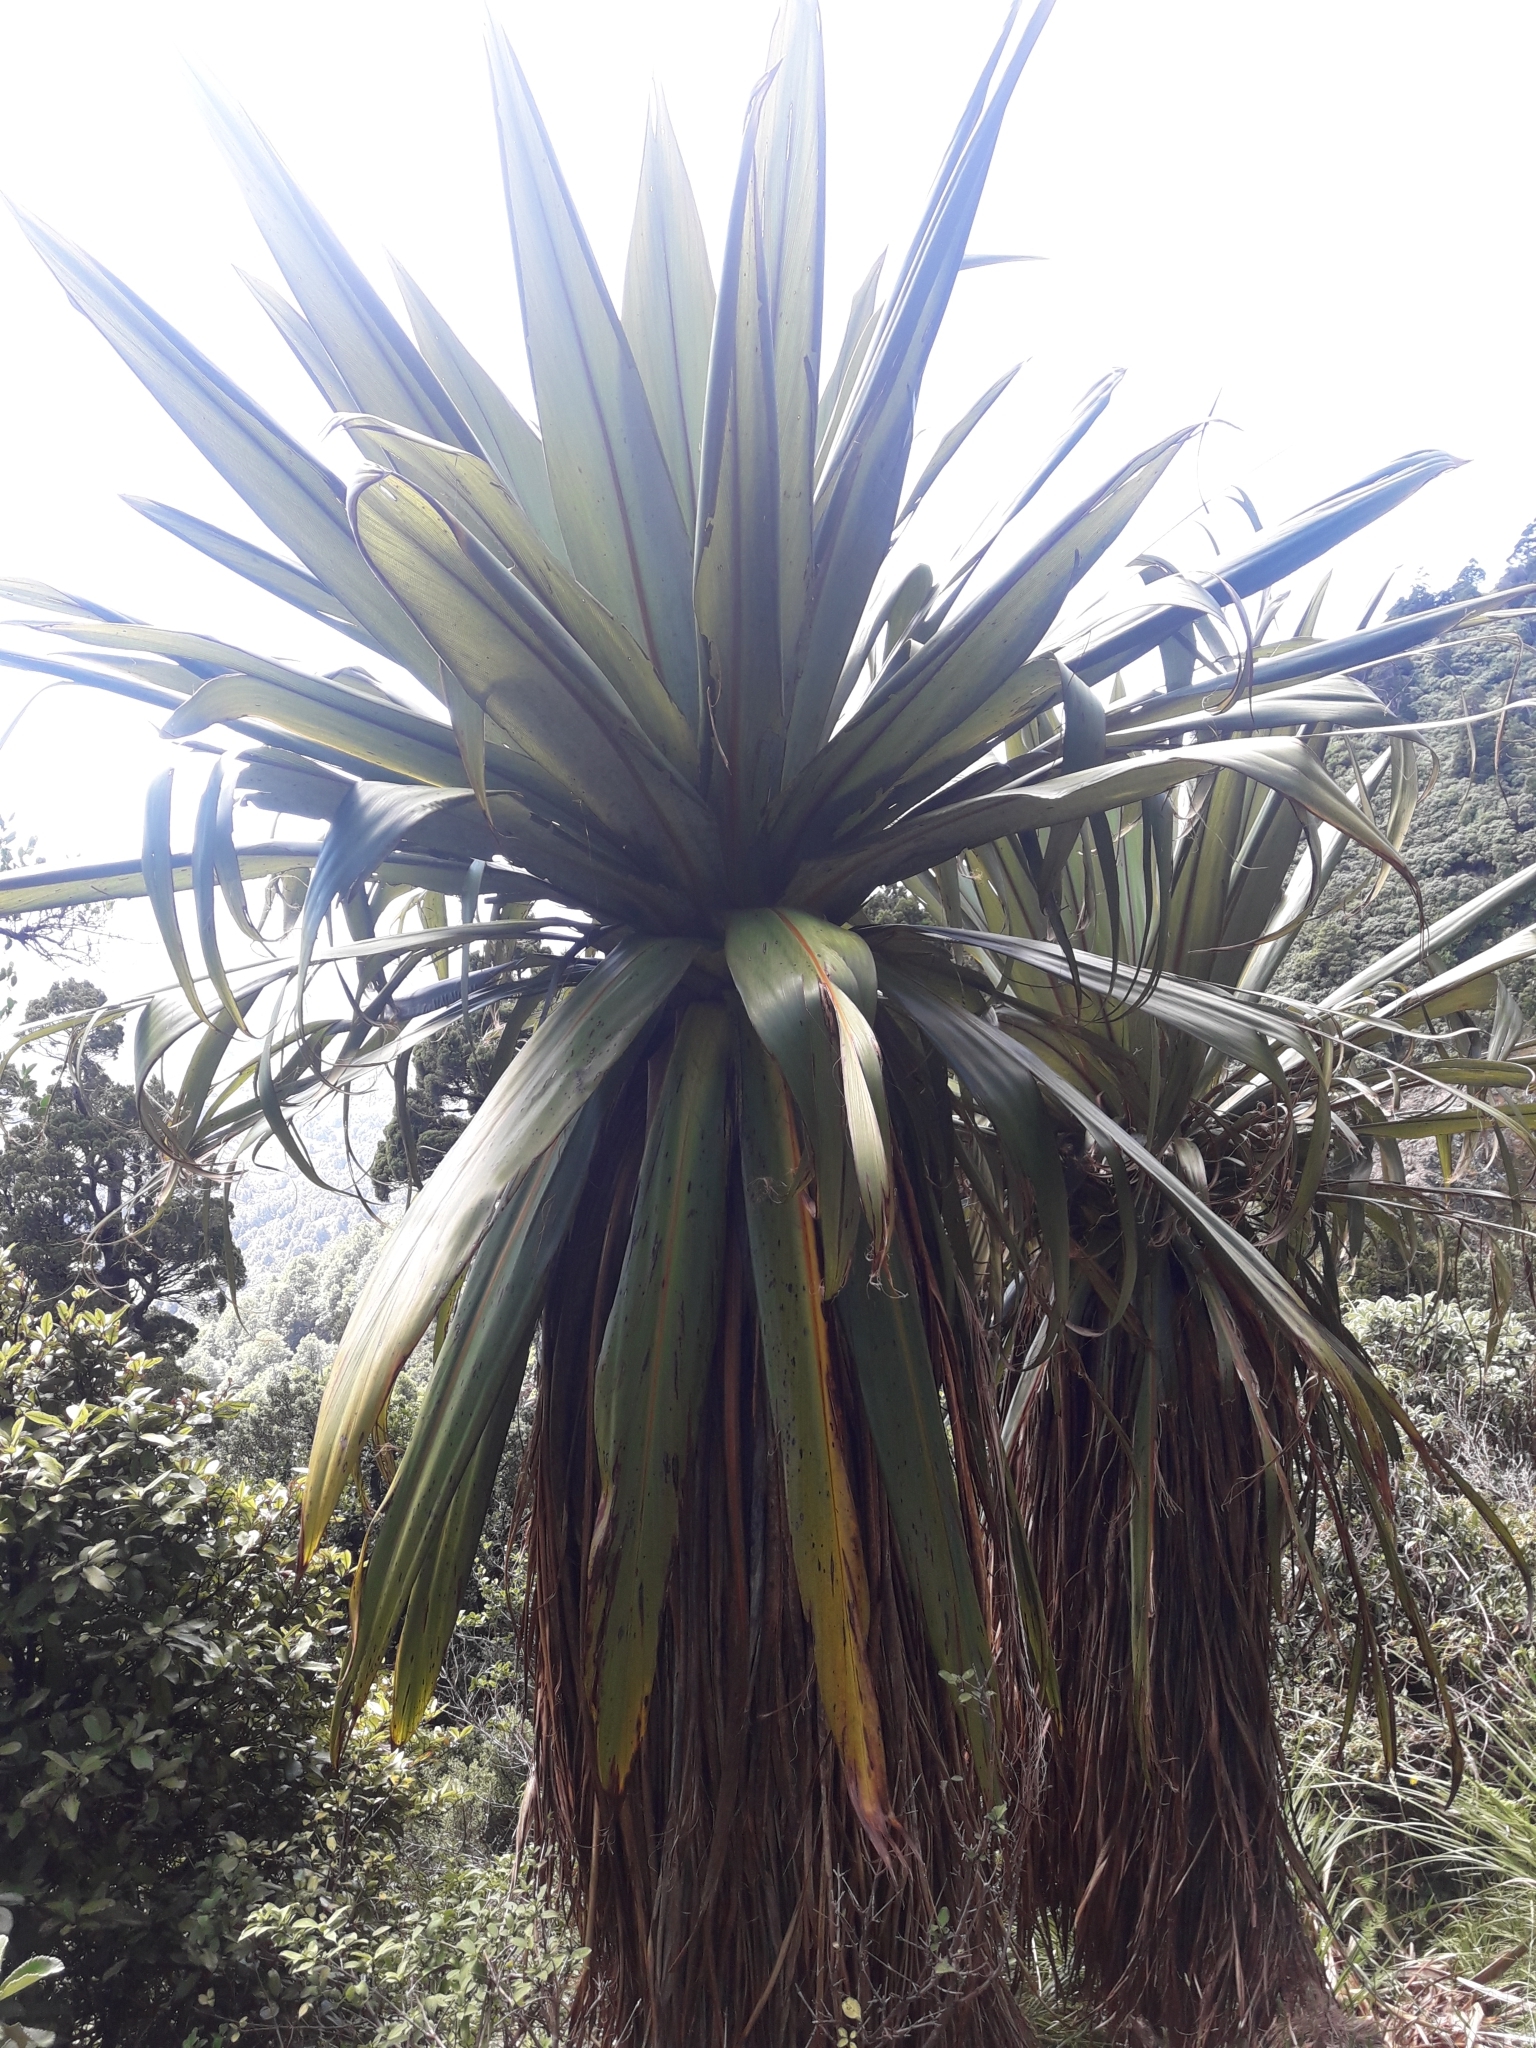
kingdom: Plantae
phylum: Tracheophyta
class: Liliopsida
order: Asparagales
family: Asparagaceae
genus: Cordyline
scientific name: Cordyline indivisa
